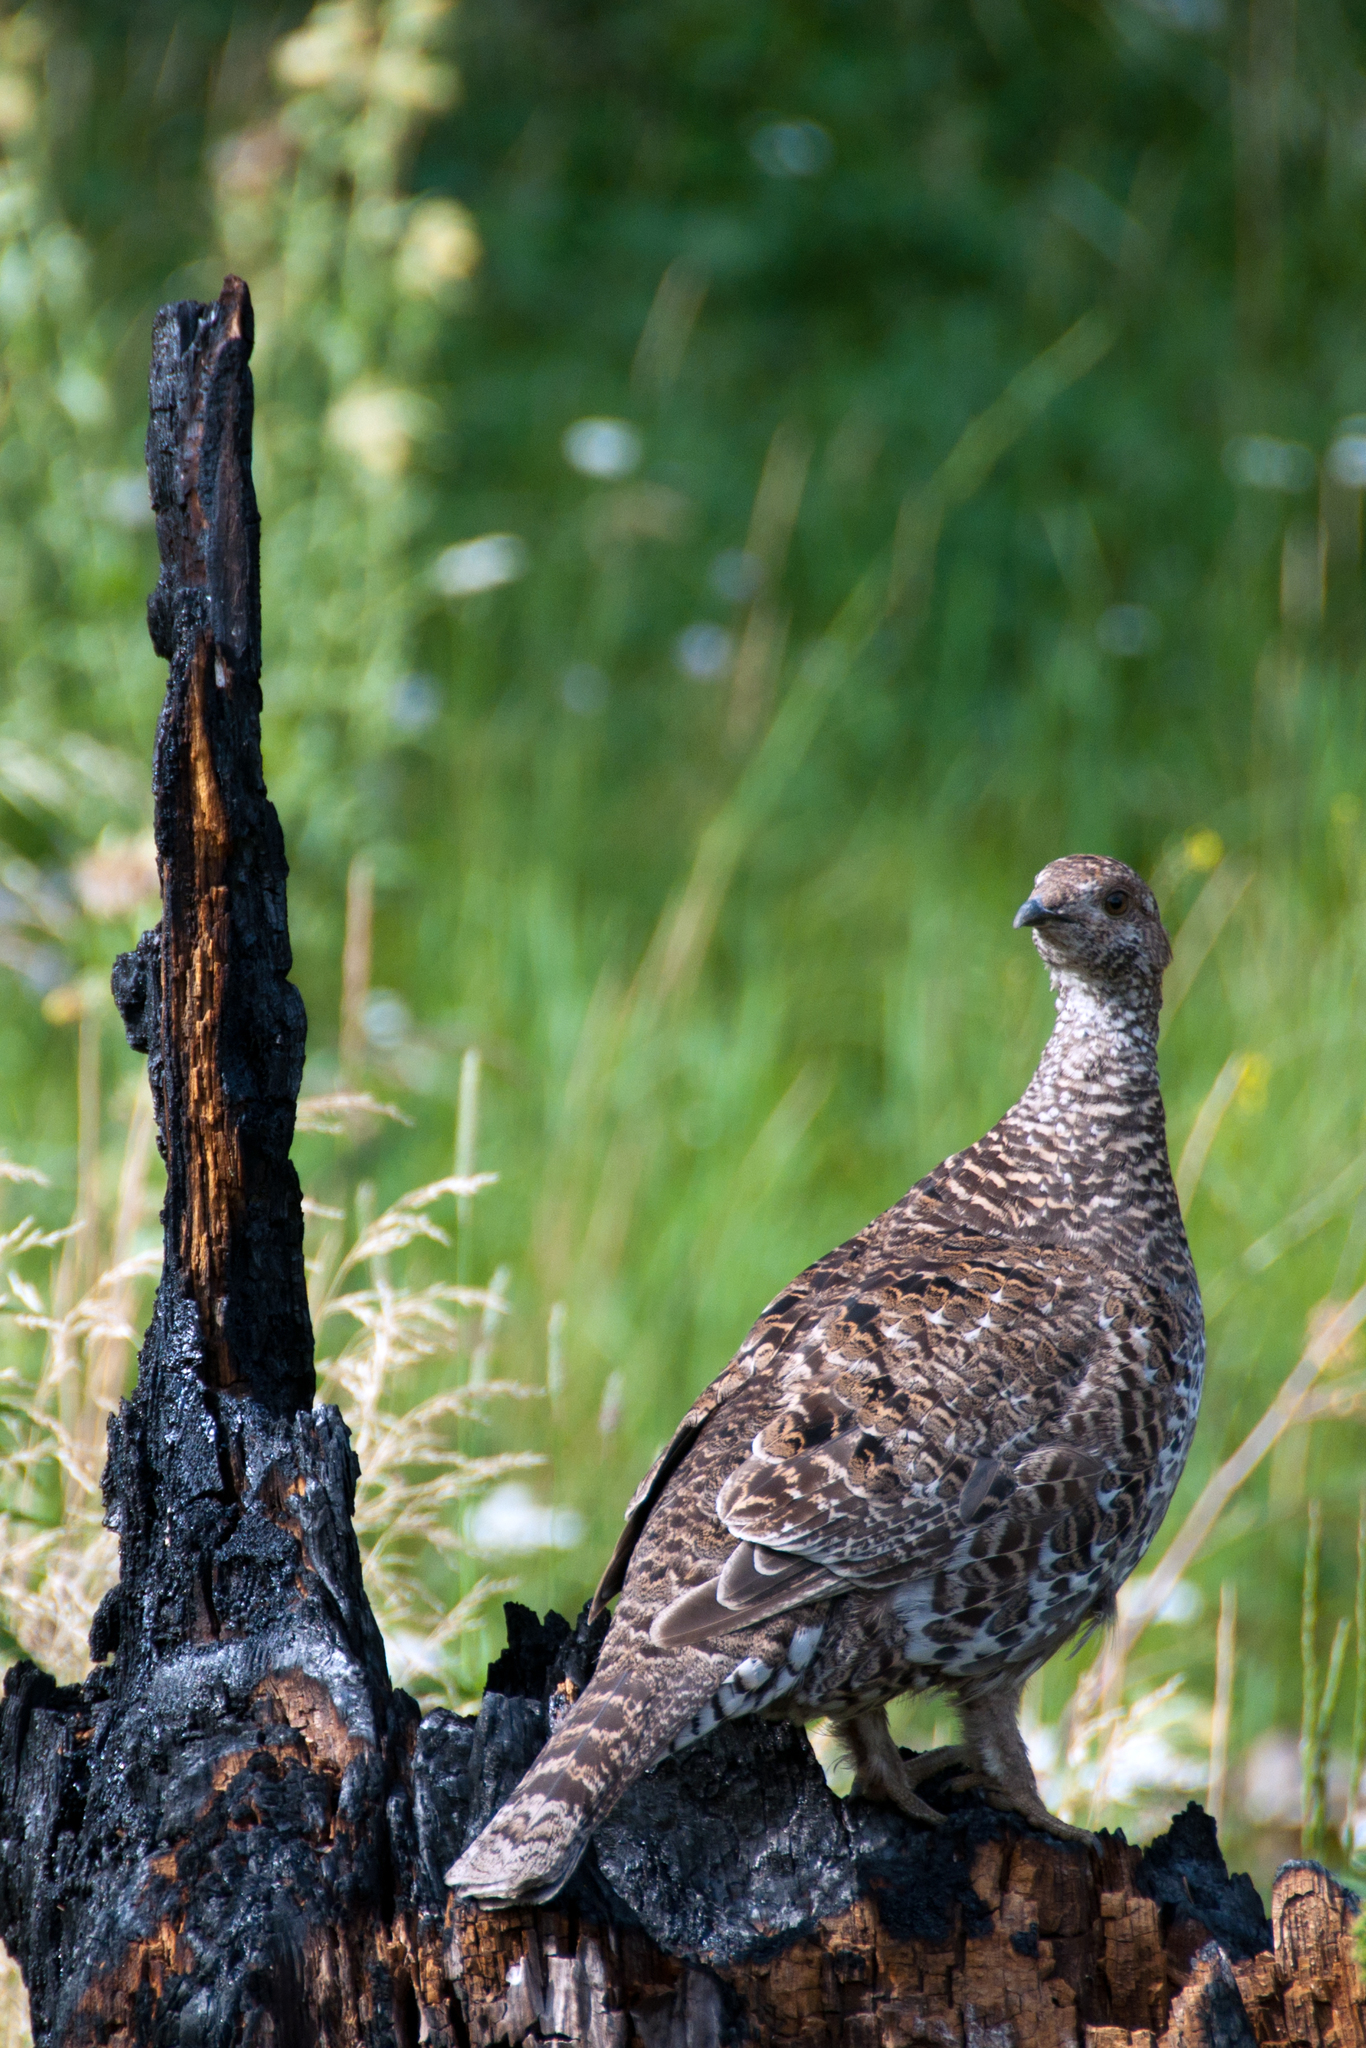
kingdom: Animalia
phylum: Chordata
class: Aves
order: Galliformes
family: Phasianidae
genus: Dendragapus
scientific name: Dendragapus obscurus
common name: Dusky grouse
